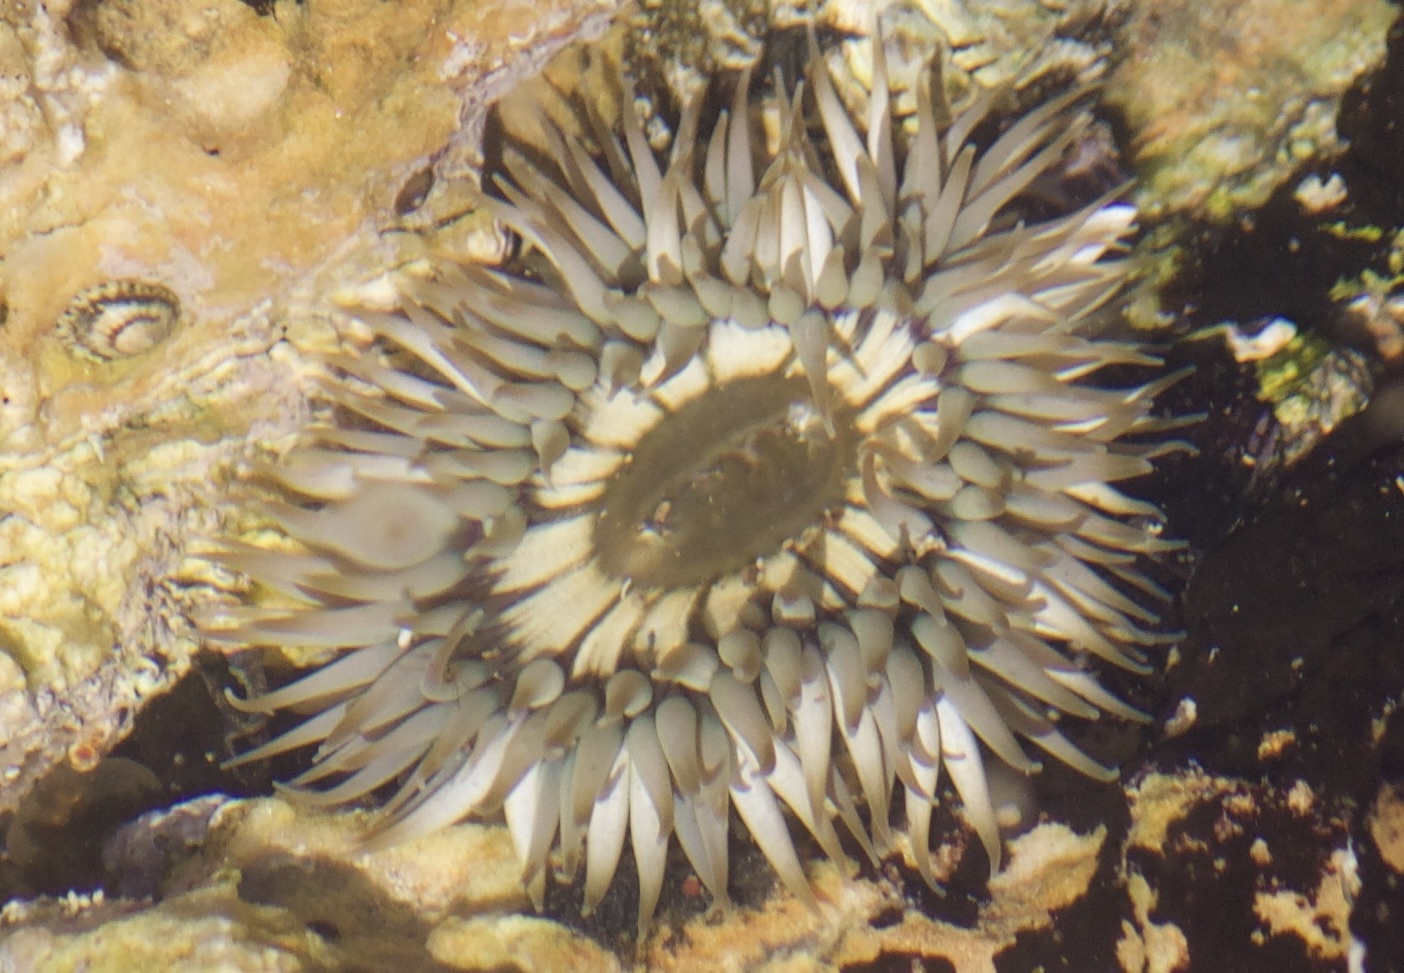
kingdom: Animalia
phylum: Cnidaria
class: Anthozoa
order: Actiniaria
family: Actiniidae
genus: Anthopleura
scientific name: Anthopleura sola
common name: Sun anemone
